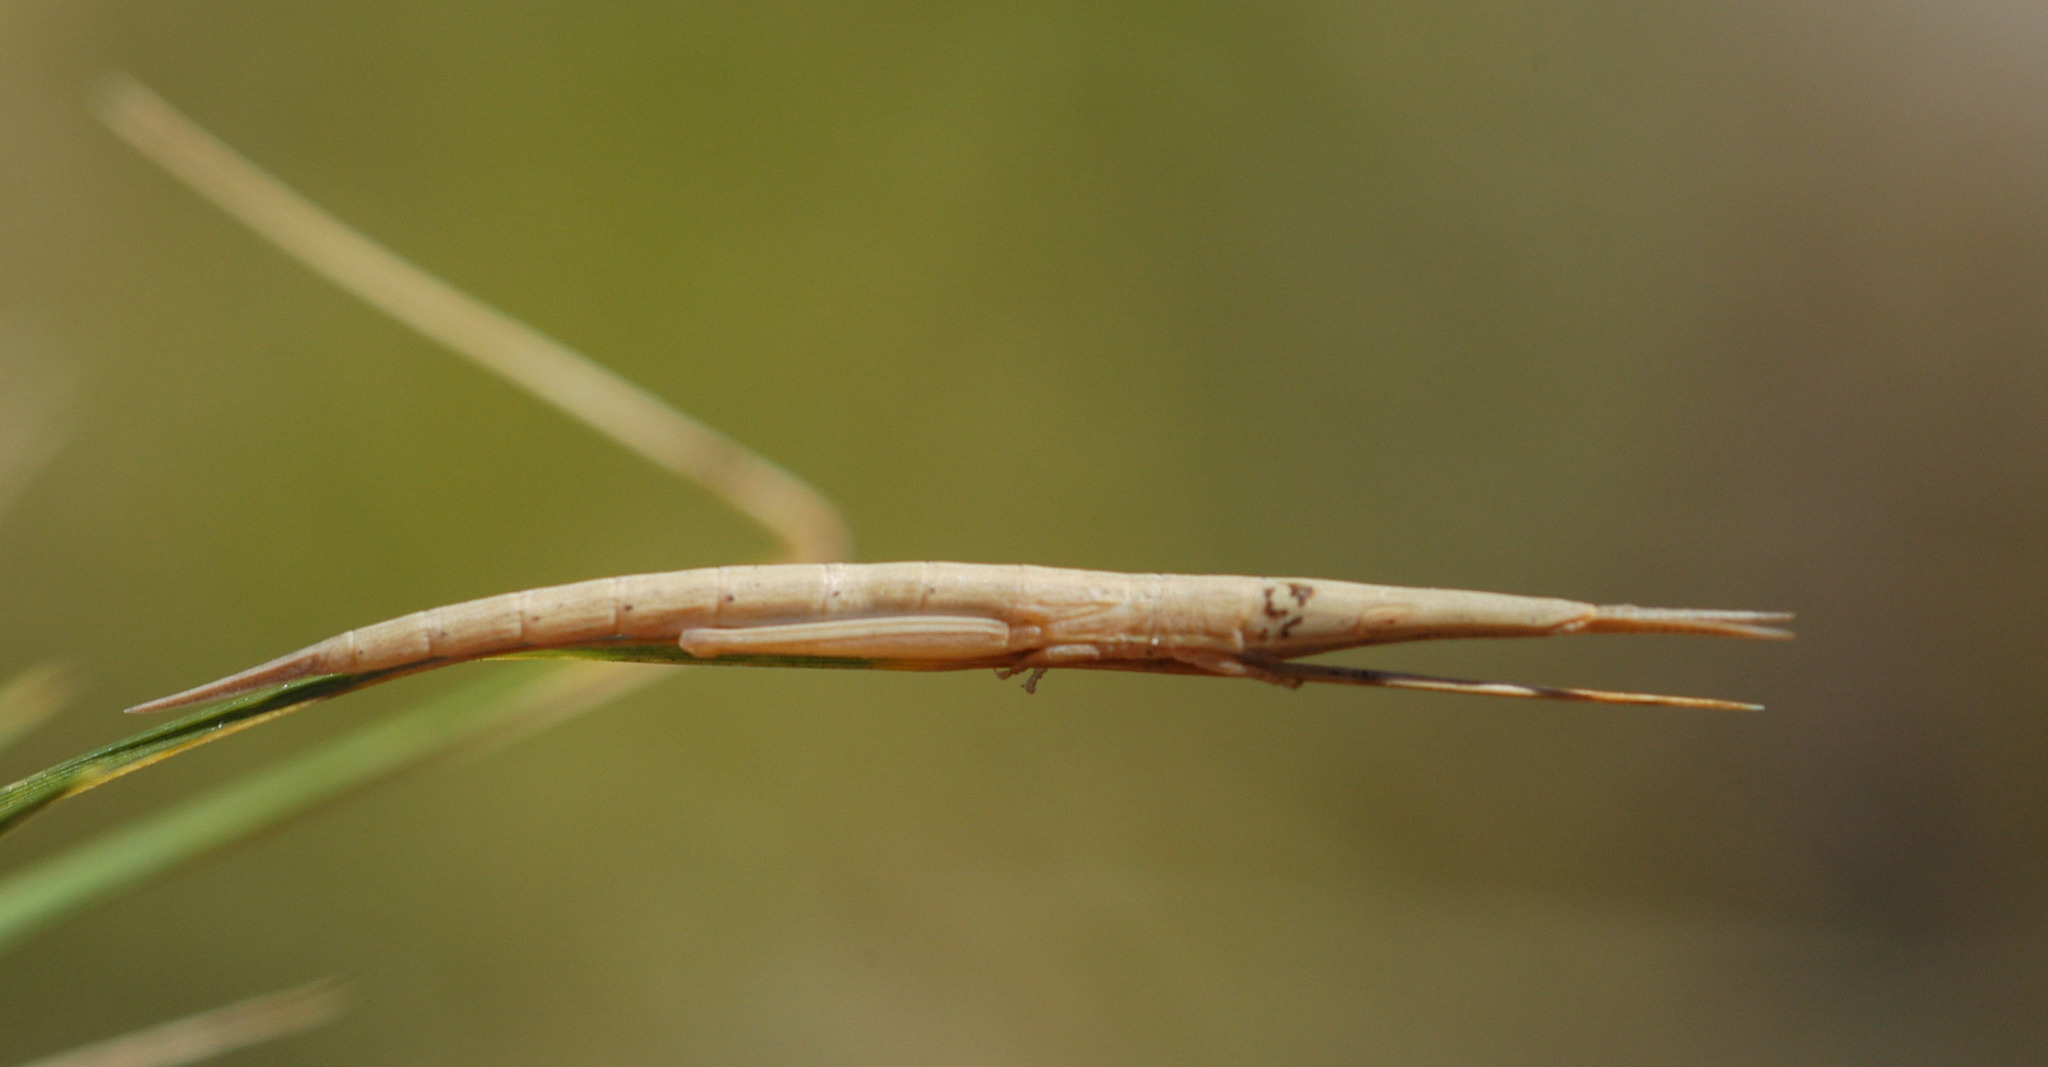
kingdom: Animalia
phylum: Arthropoda
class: Insecta
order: Orthoptera
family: Pyrgomorphidae
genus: Psednura
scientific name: Psednura pedestris
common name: Common psednura
